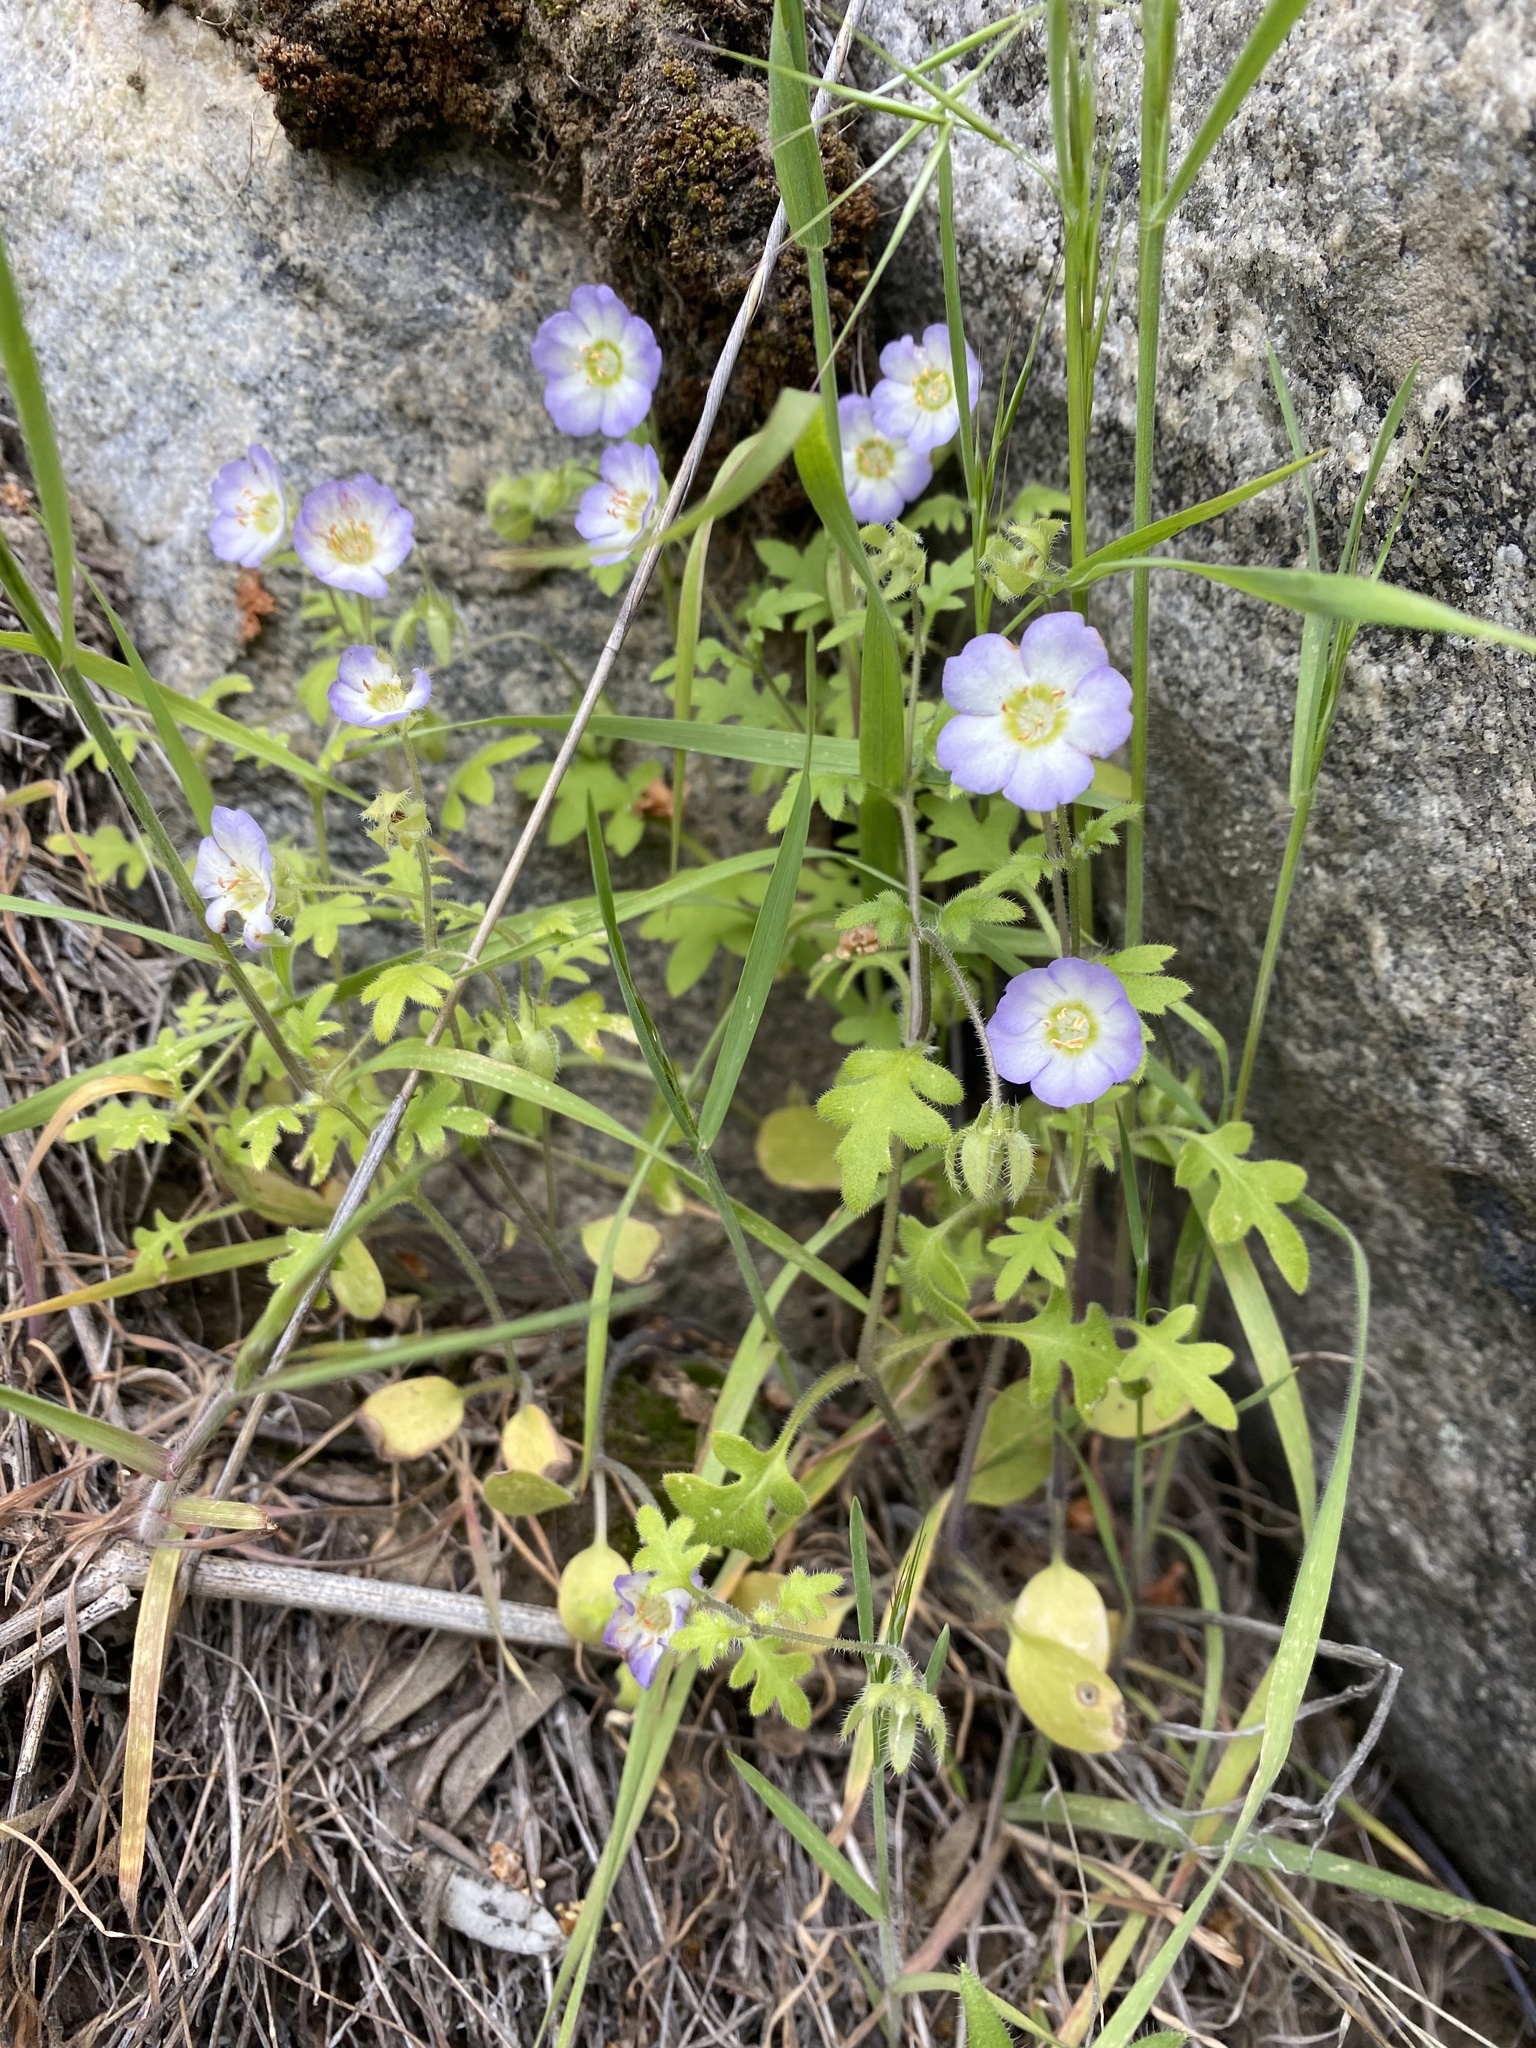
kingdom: Plantae
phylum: Tracheophyta
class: Magnoliopsida
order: Boraginales
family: Hydrophyllaceae
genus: Nemophila
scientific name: Nemophila kirtleyi
